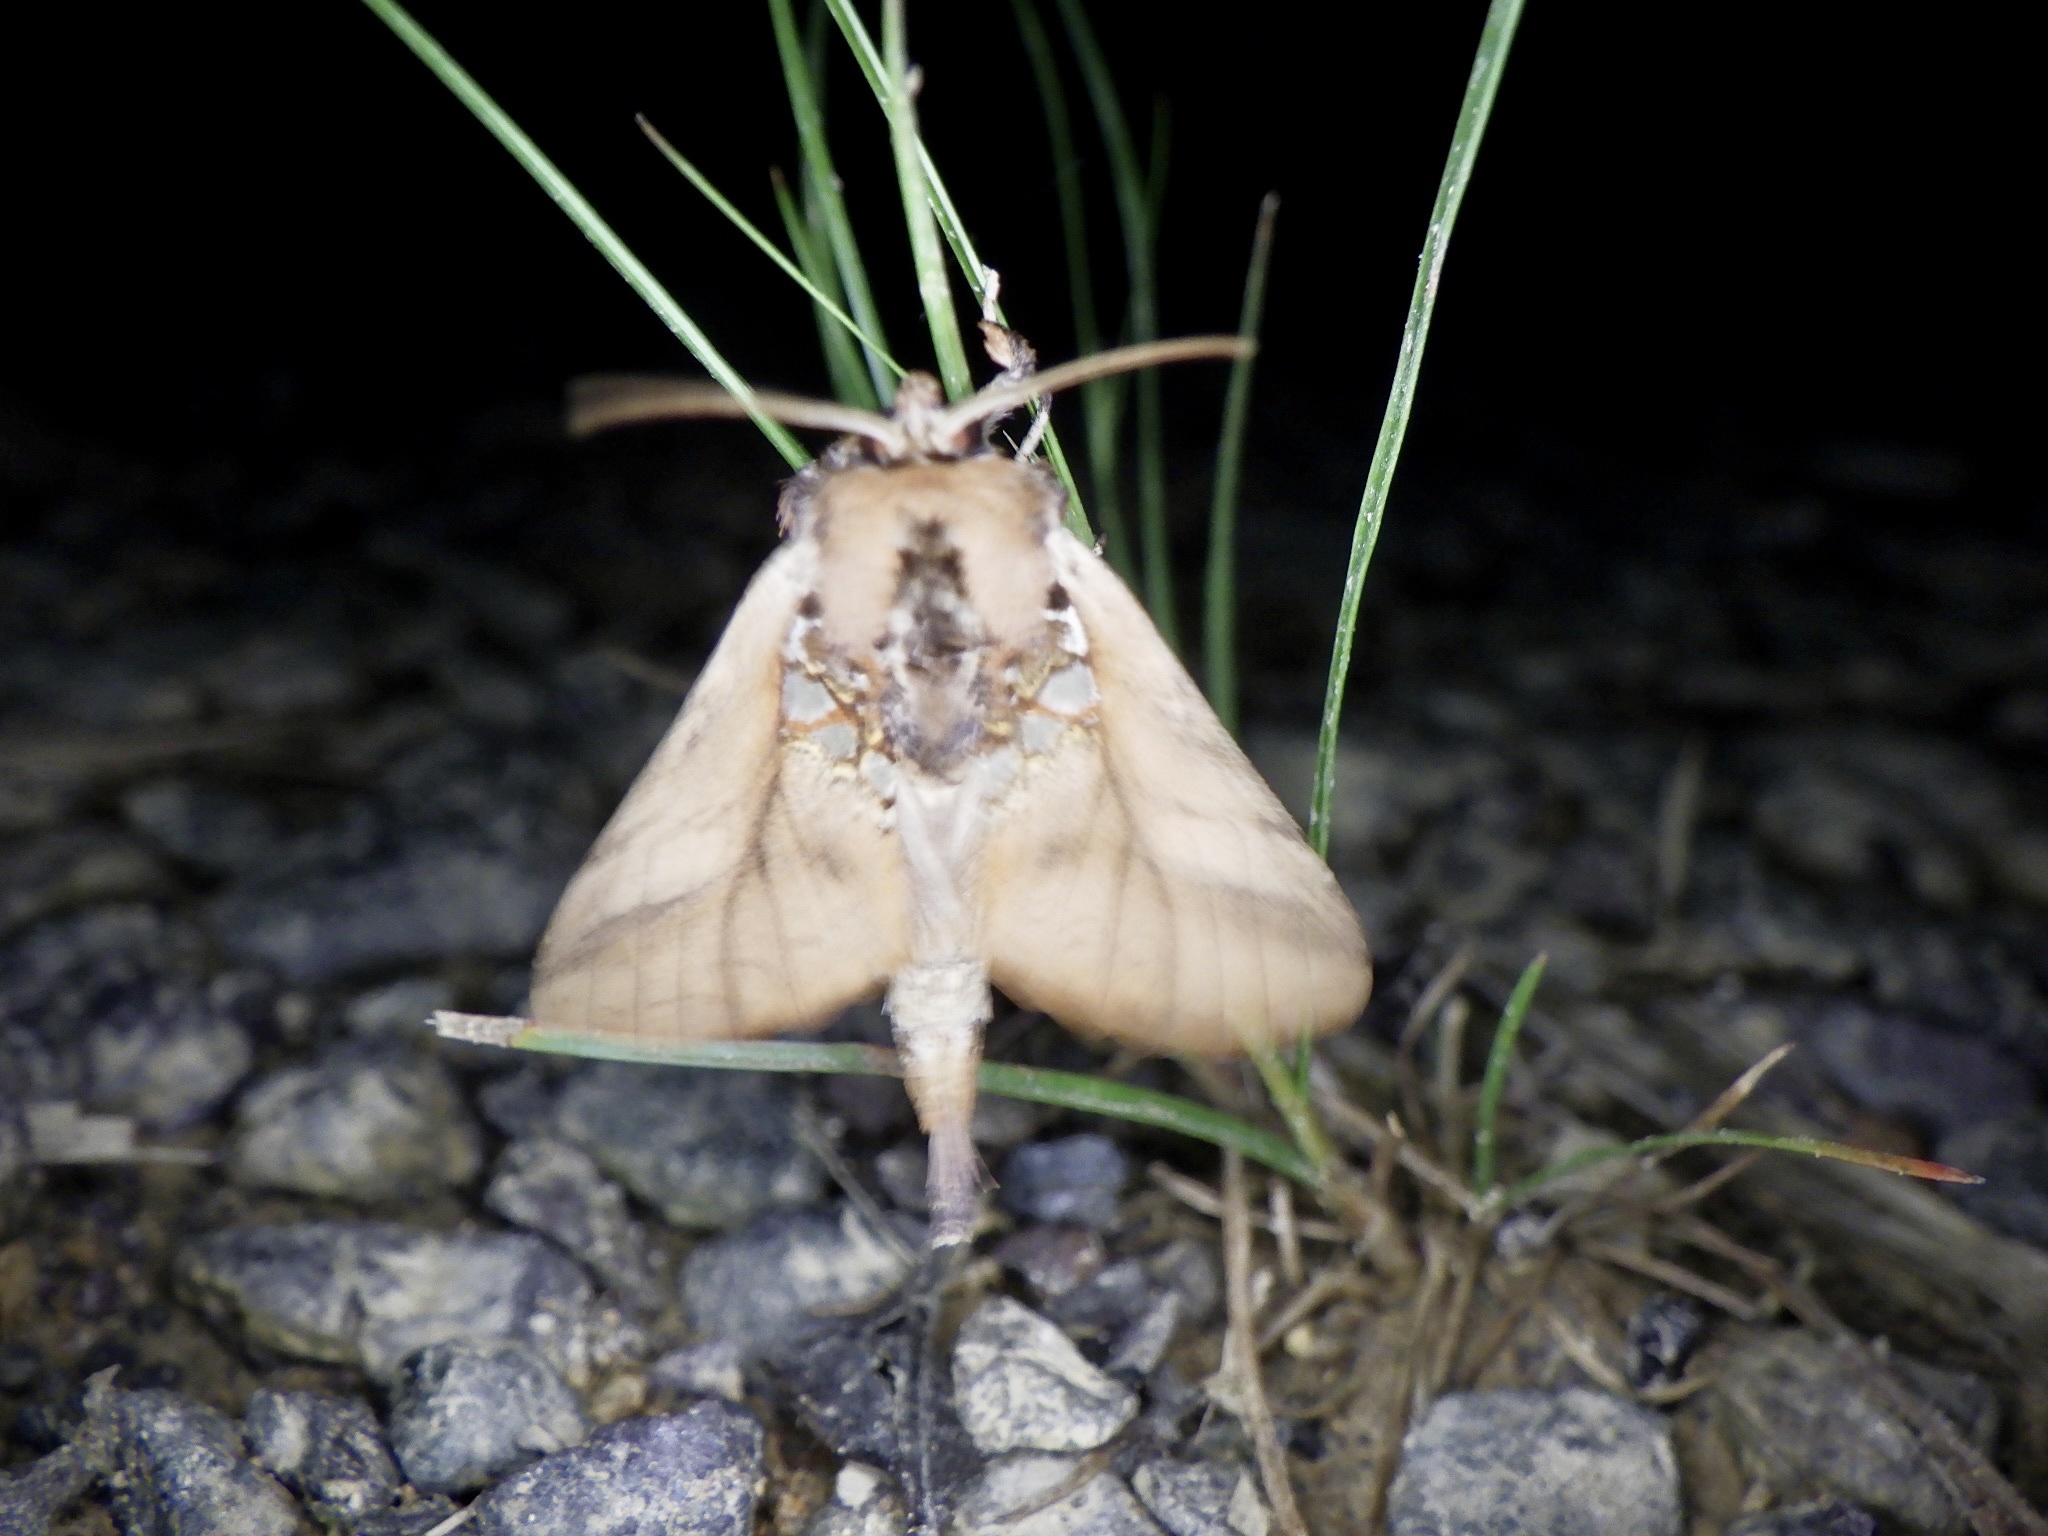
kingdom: Animalia
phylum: Arthropoda
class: Insecta
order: Lepidoptera
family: Notodontidae
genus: Spatalia
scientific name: Spatalia dives
